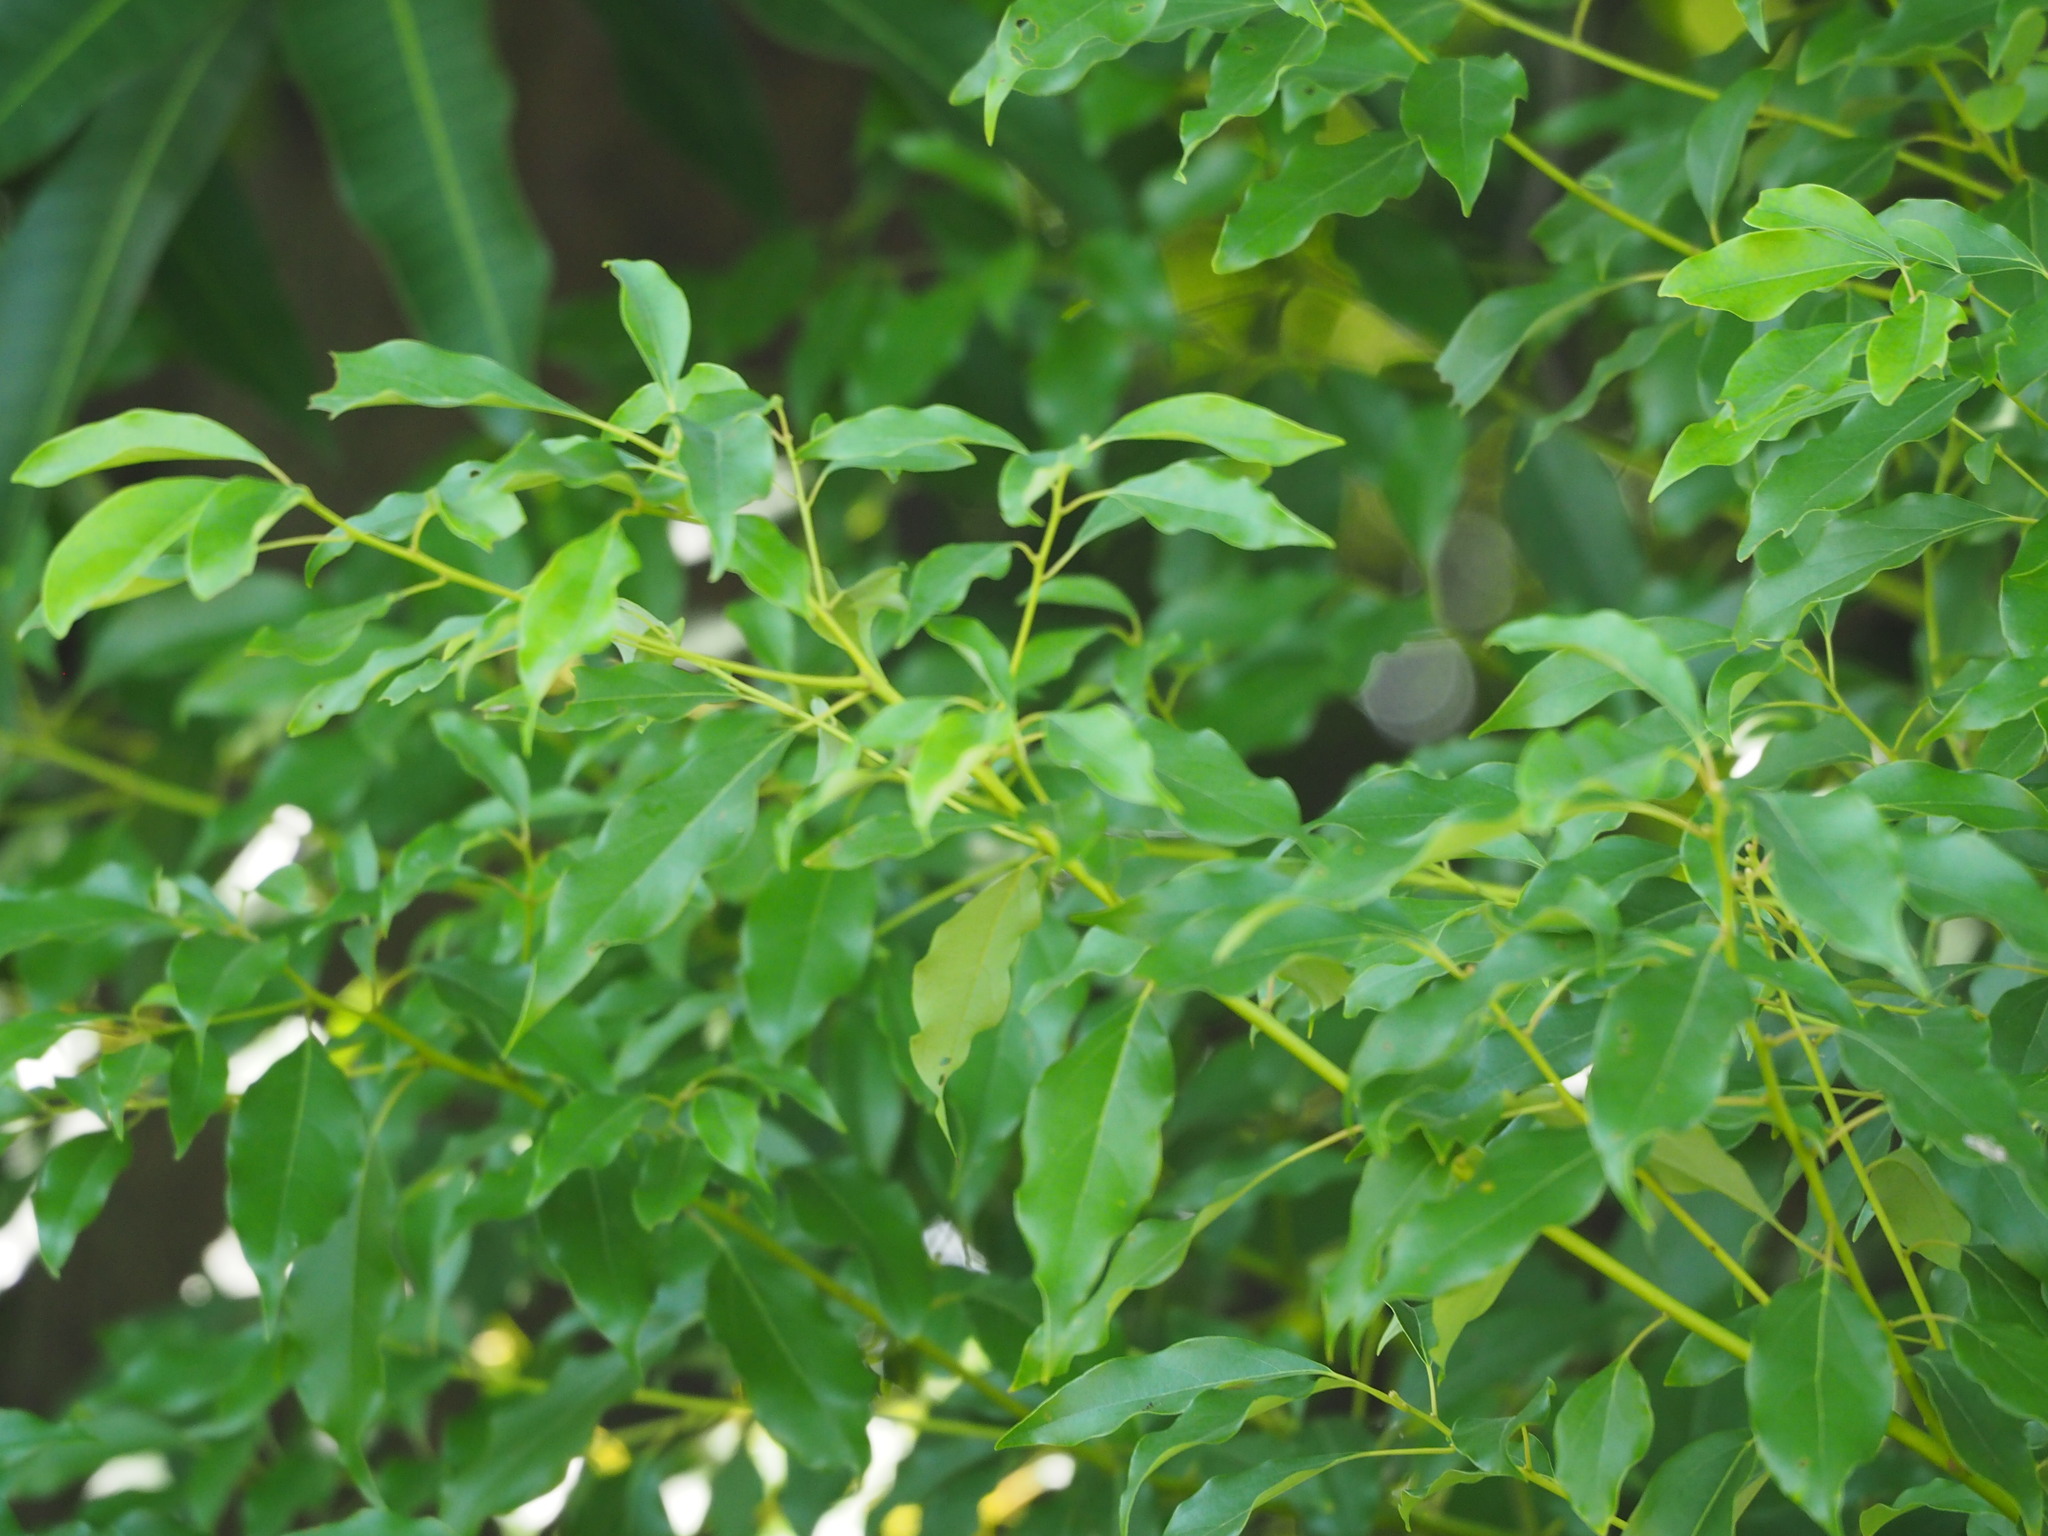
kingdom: Plantae
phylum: Tracheophyta
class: Magnoliopsida
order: Laurales
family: Lauraceae
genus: Cinnamomum
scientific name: Cinnamomum camphora
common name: Camphortree
